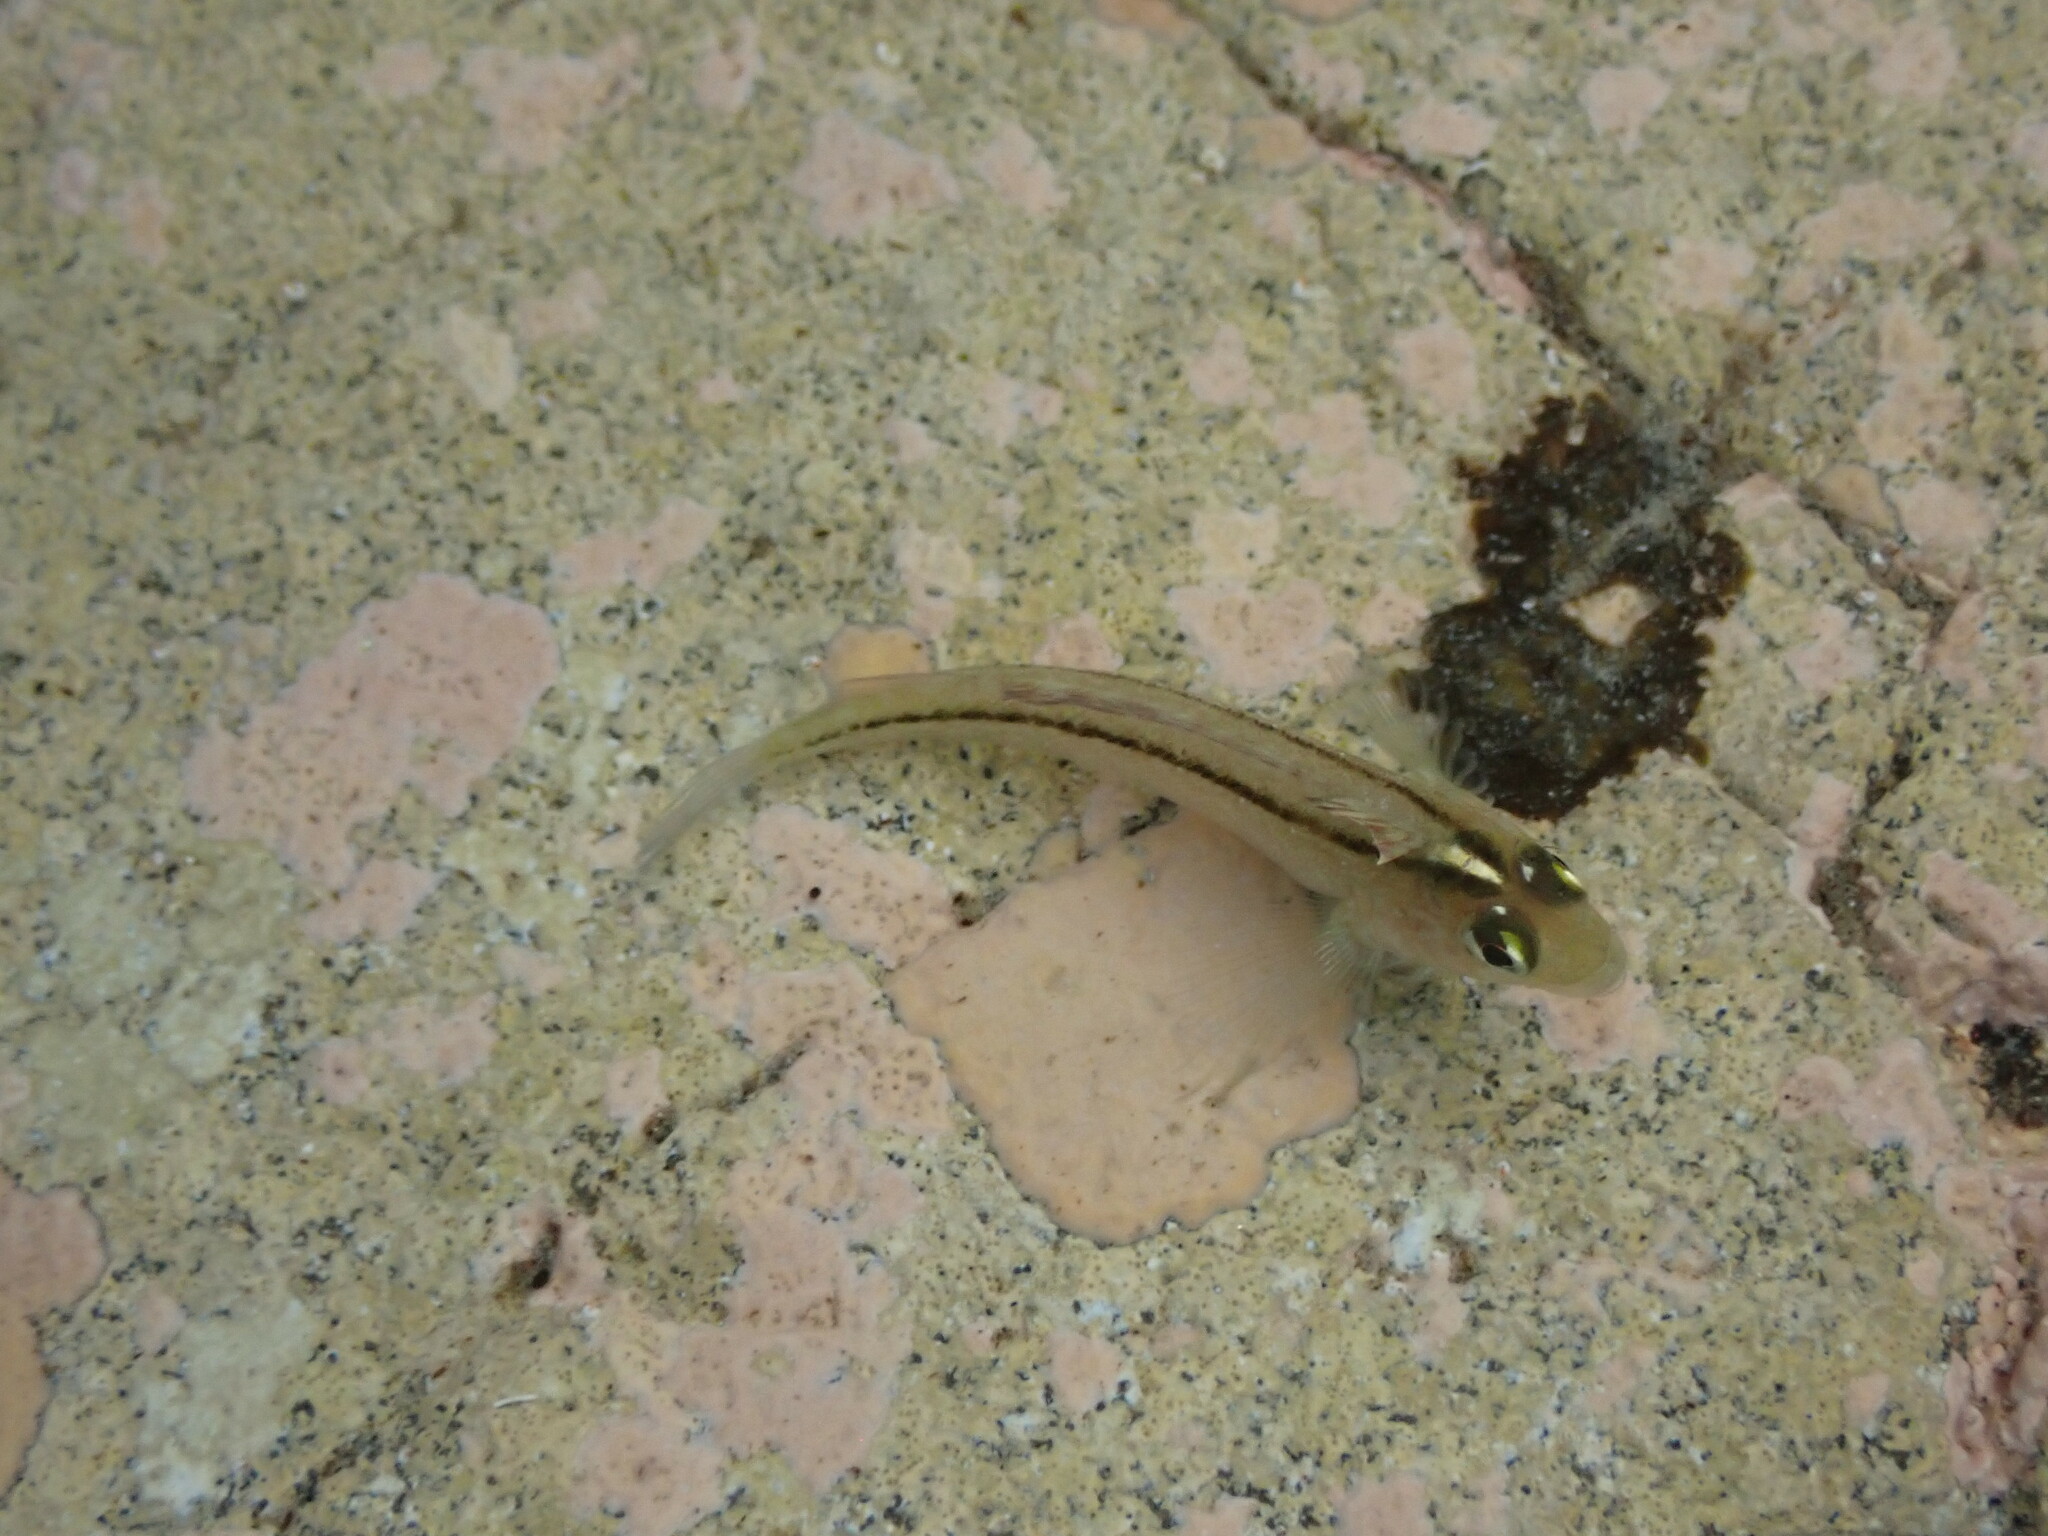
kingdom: Animalia
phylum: Chordata
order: Perciformes
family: Tripterygiidae
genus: Forsterygion
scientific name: Forsterygion lapillum
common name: Common triplefin
